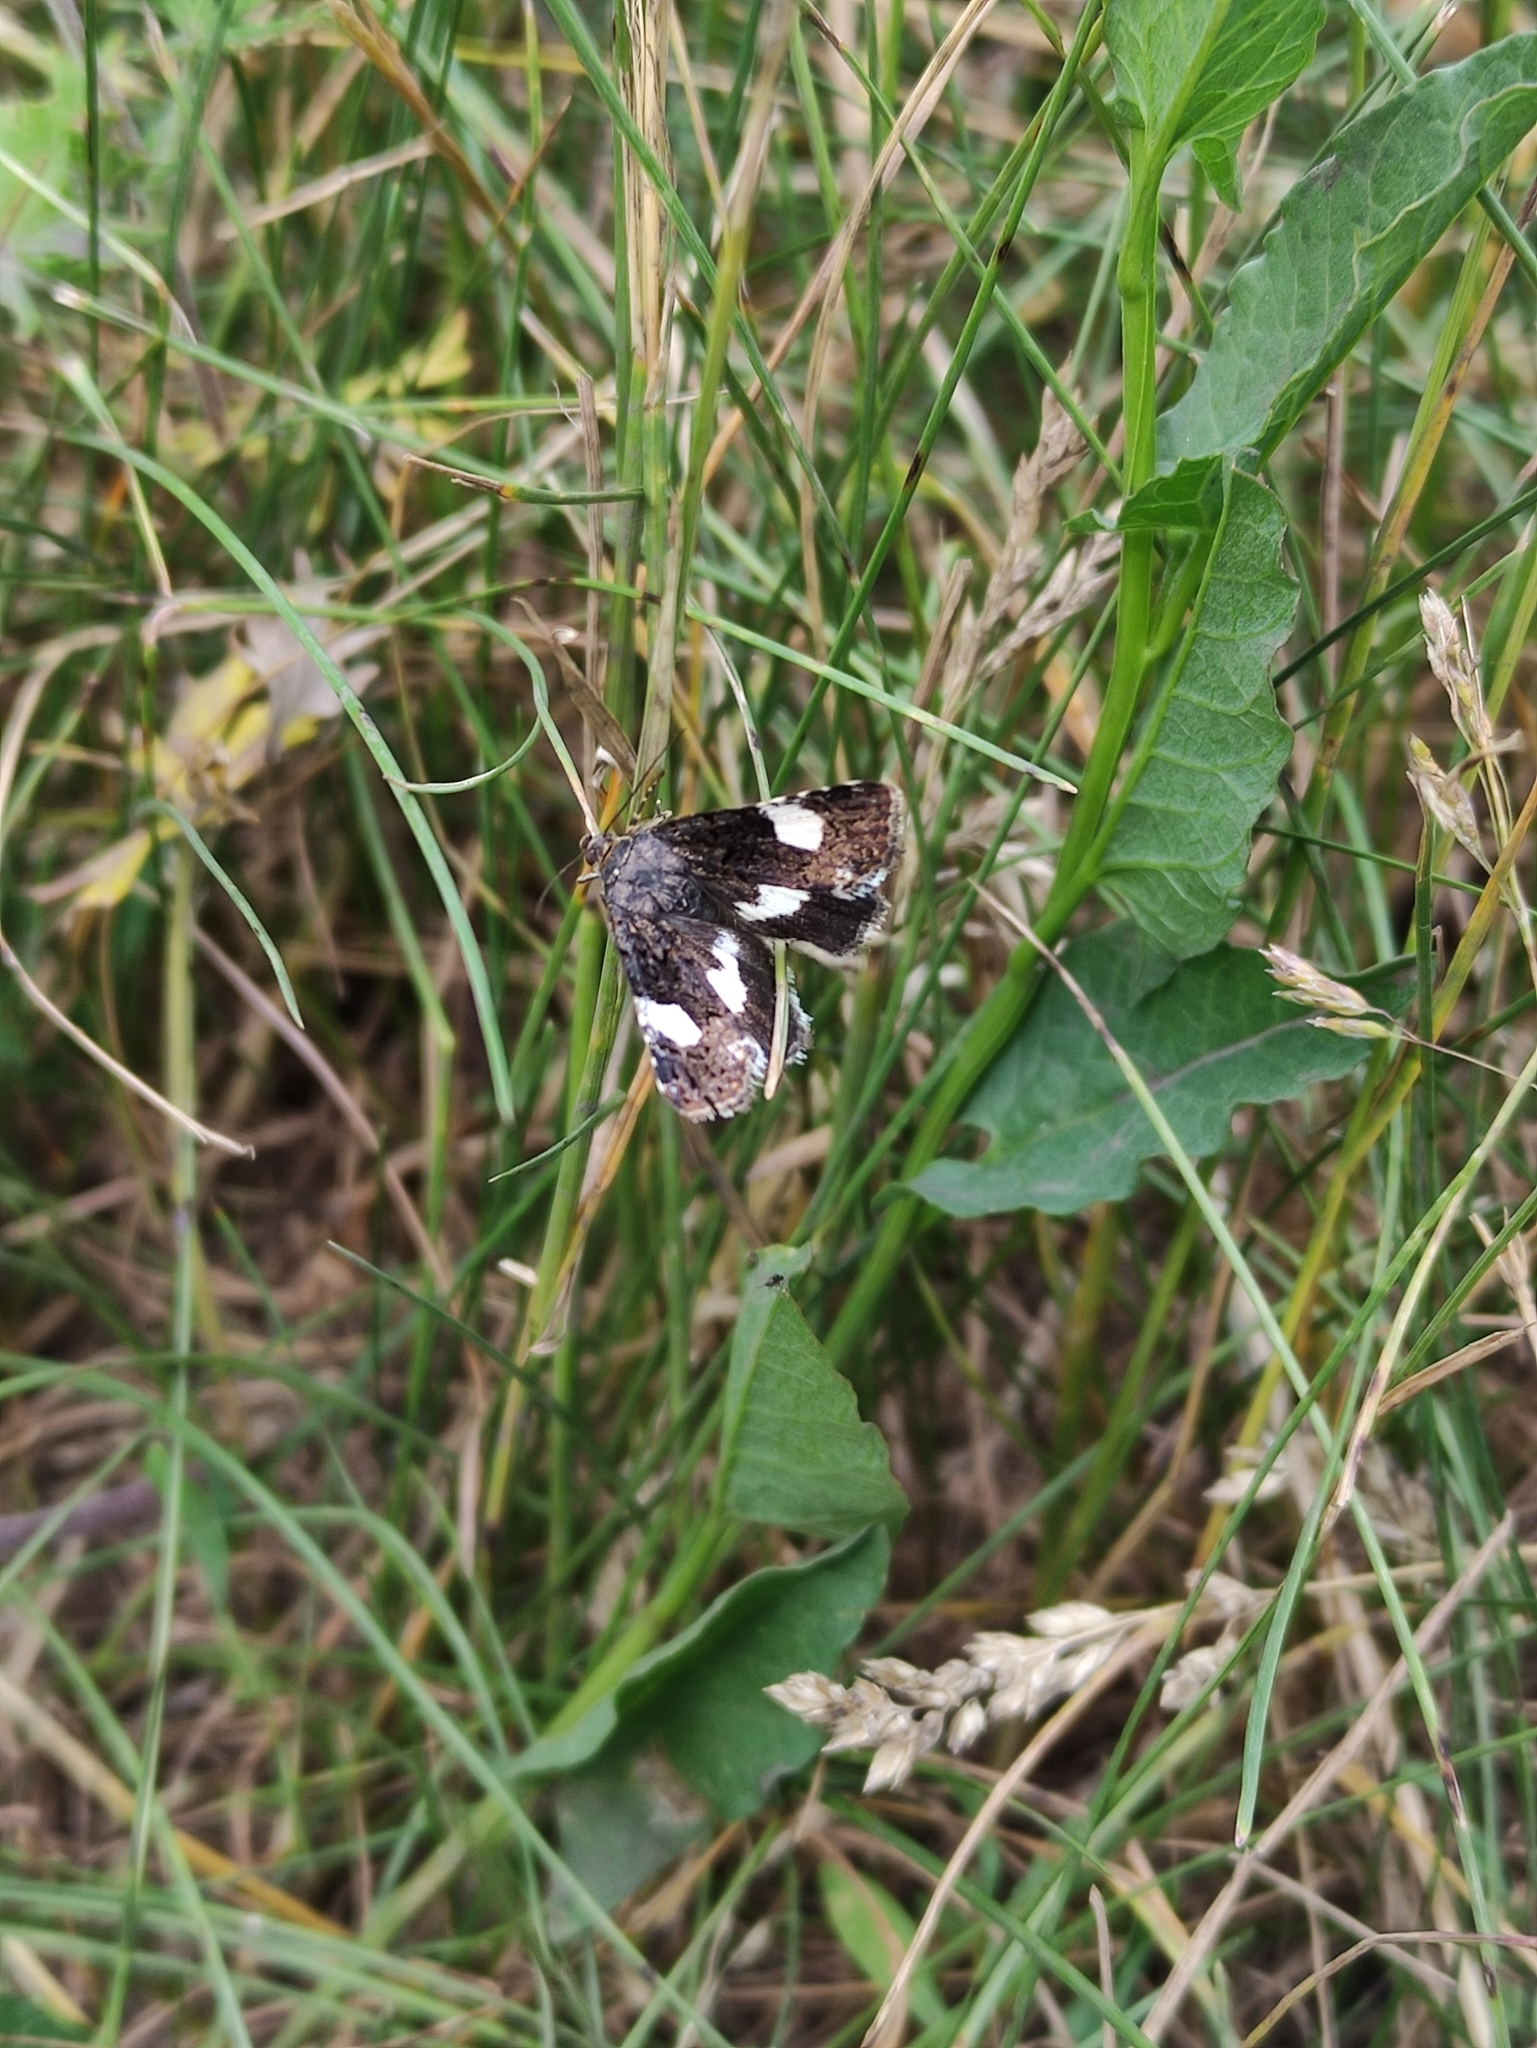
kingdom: Animalia
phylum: Arthropoda
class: Insecta
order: Lepidoptera
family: Erebidae
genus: Tyta
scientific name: Tyta luctuosa
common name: Four-spotted
